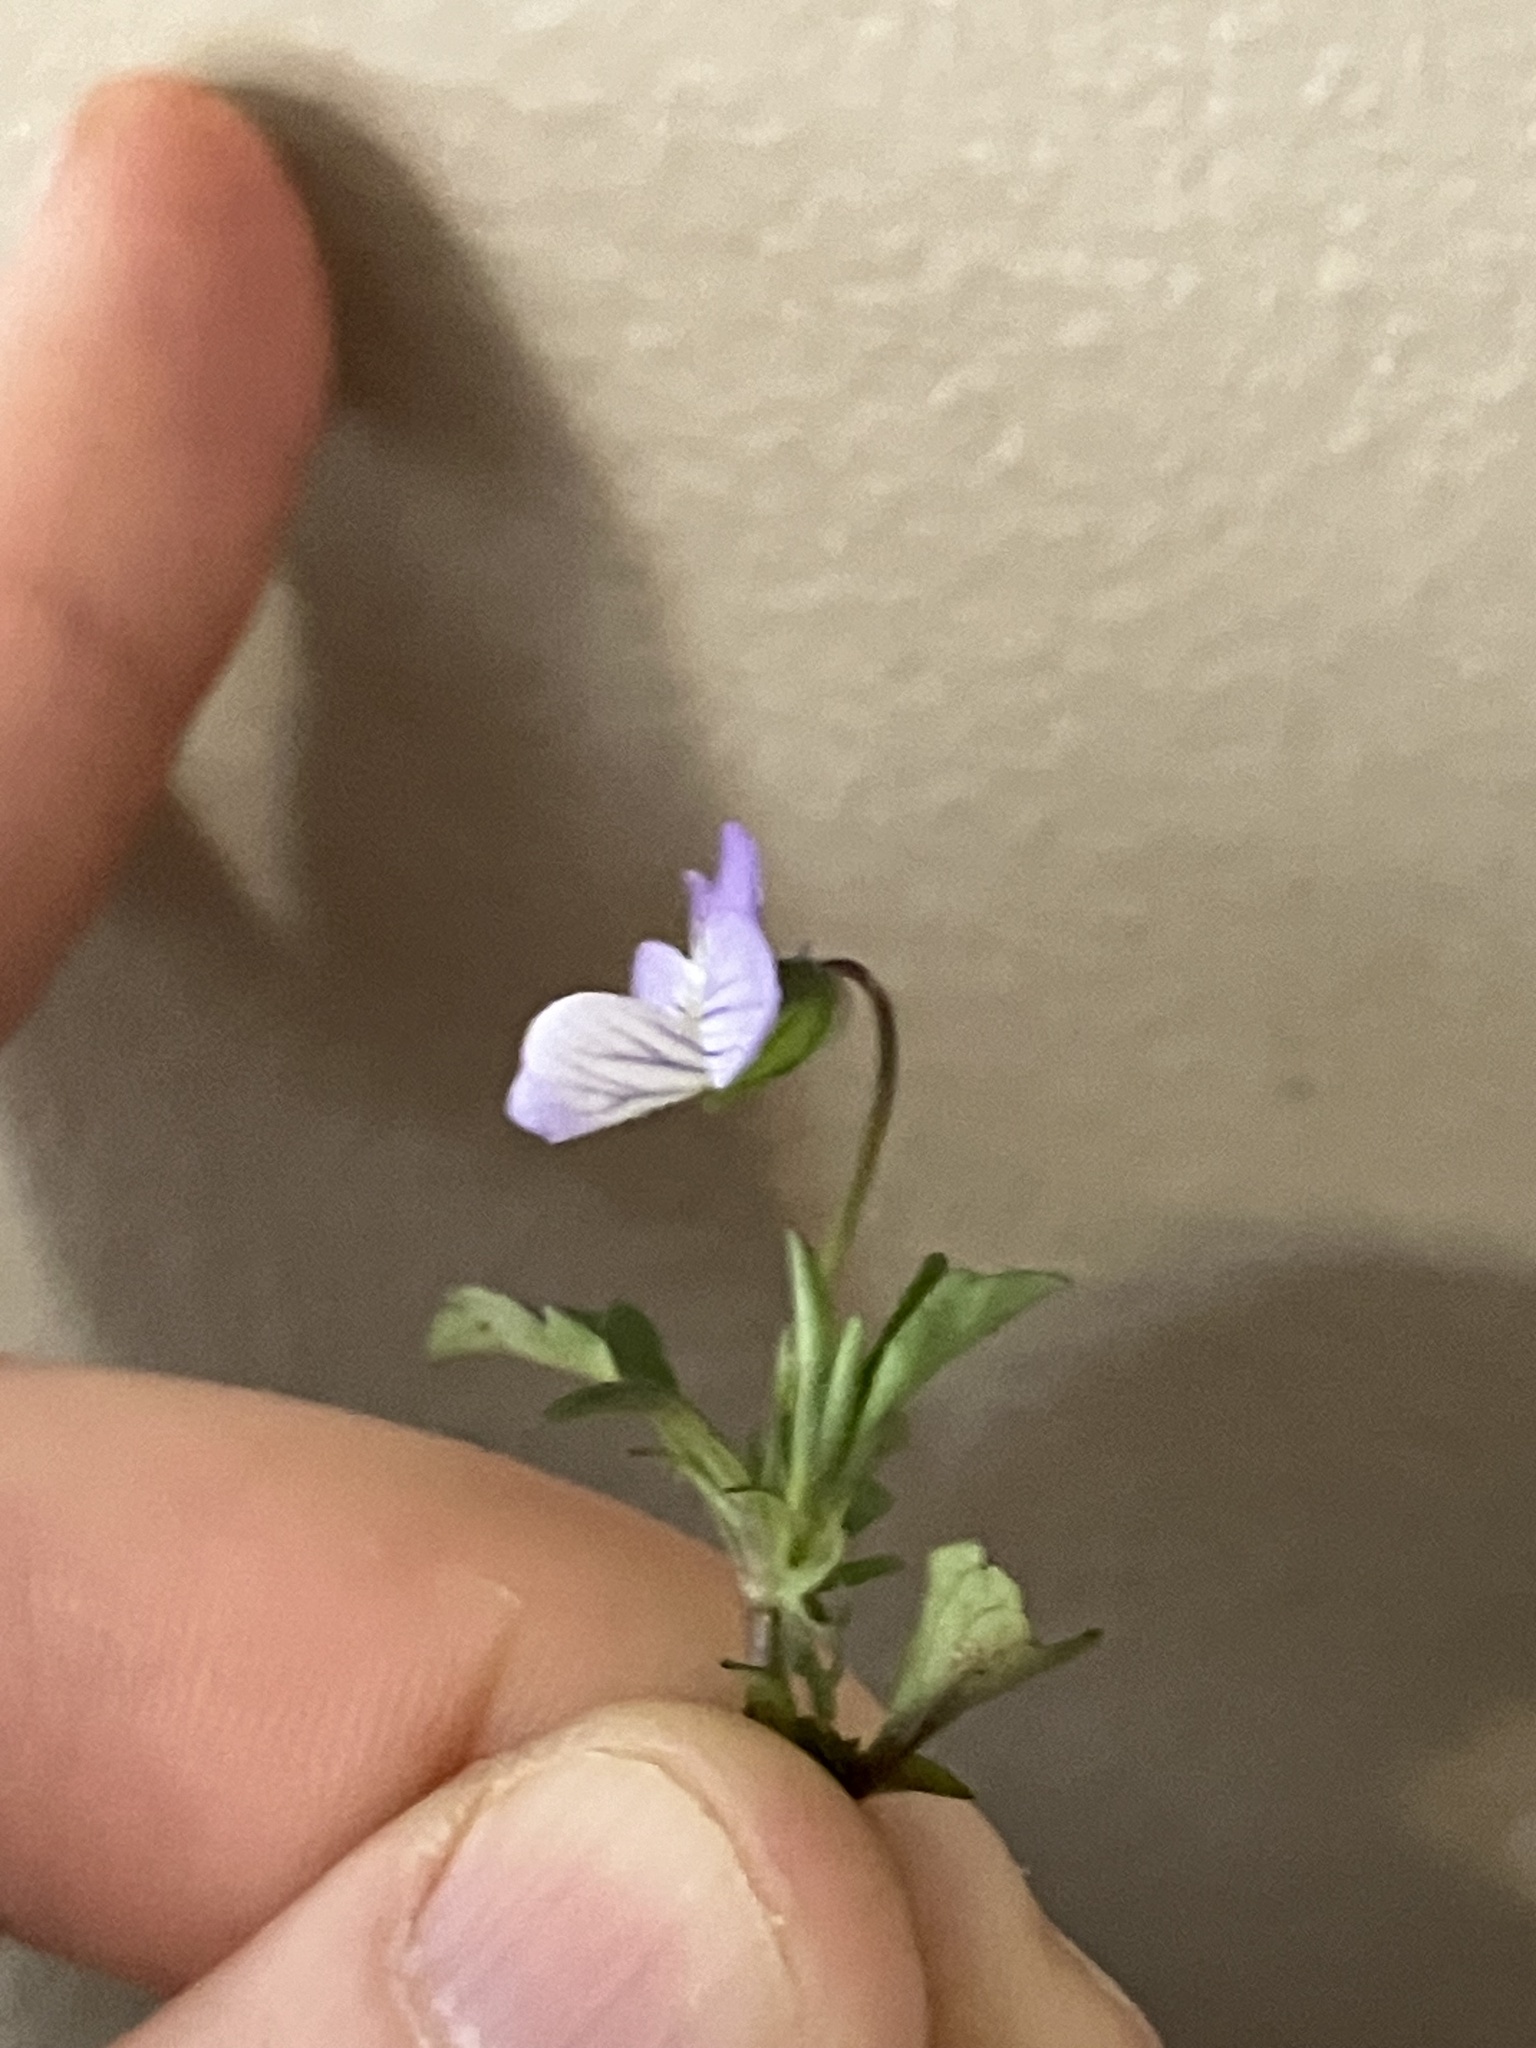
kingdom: Plantae
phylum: Tracheophyta
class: Magnoliopsida
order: Malpighiales
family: Violaceae
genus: Viola
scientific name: Viola rafinesquei
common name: American field pansy
